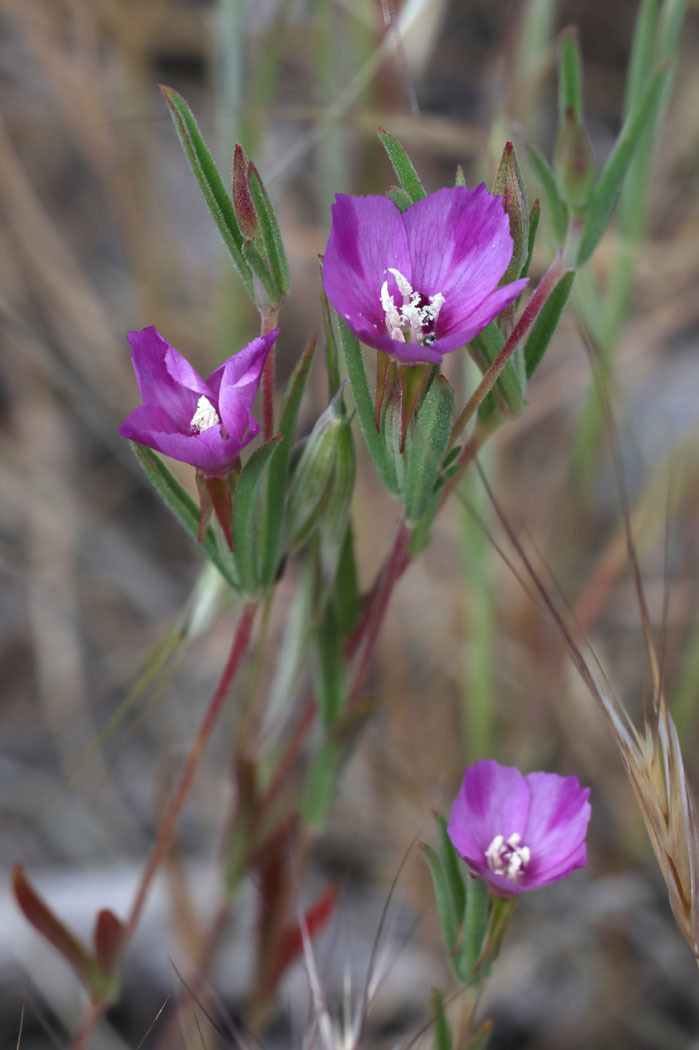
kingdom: Plantae
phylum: Tracheophyta
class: Magnoliopsida
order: Myrtales
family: Onagraceae
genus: Clarkia
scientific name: Clarkia purpurea
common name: Purple clarkia
